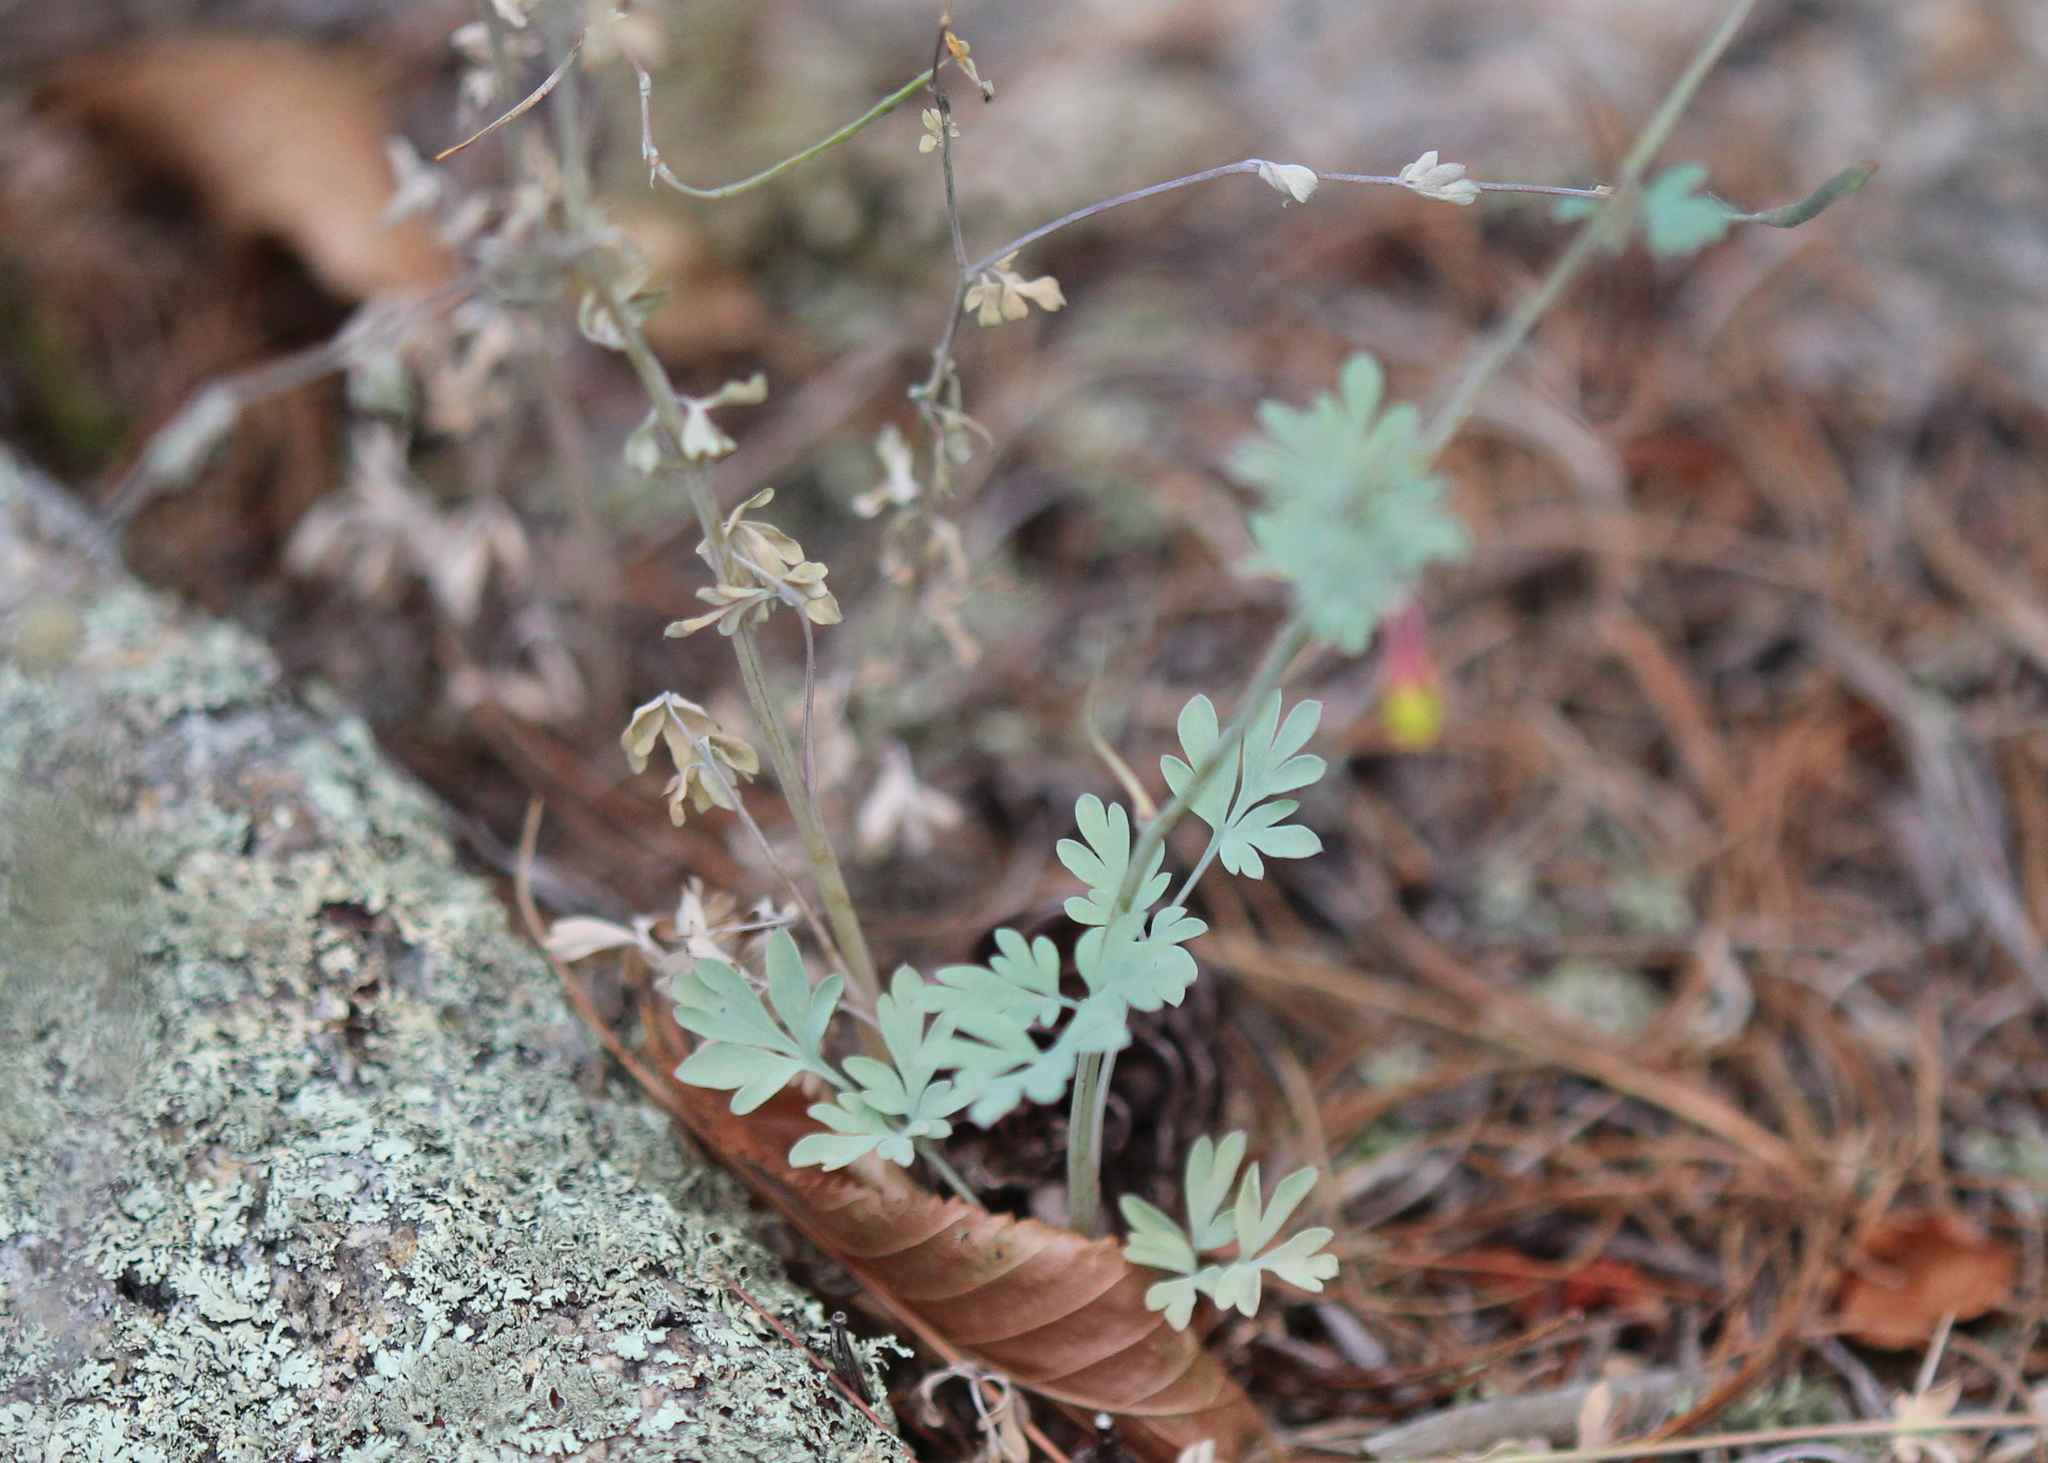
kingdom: Plantae
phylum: Tracheophyta
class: Magnoliopsida
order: Ranunculales
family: Papaveraceae
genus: Capnoides
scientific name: Capnoides sempervirens
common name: Rock harlequin
